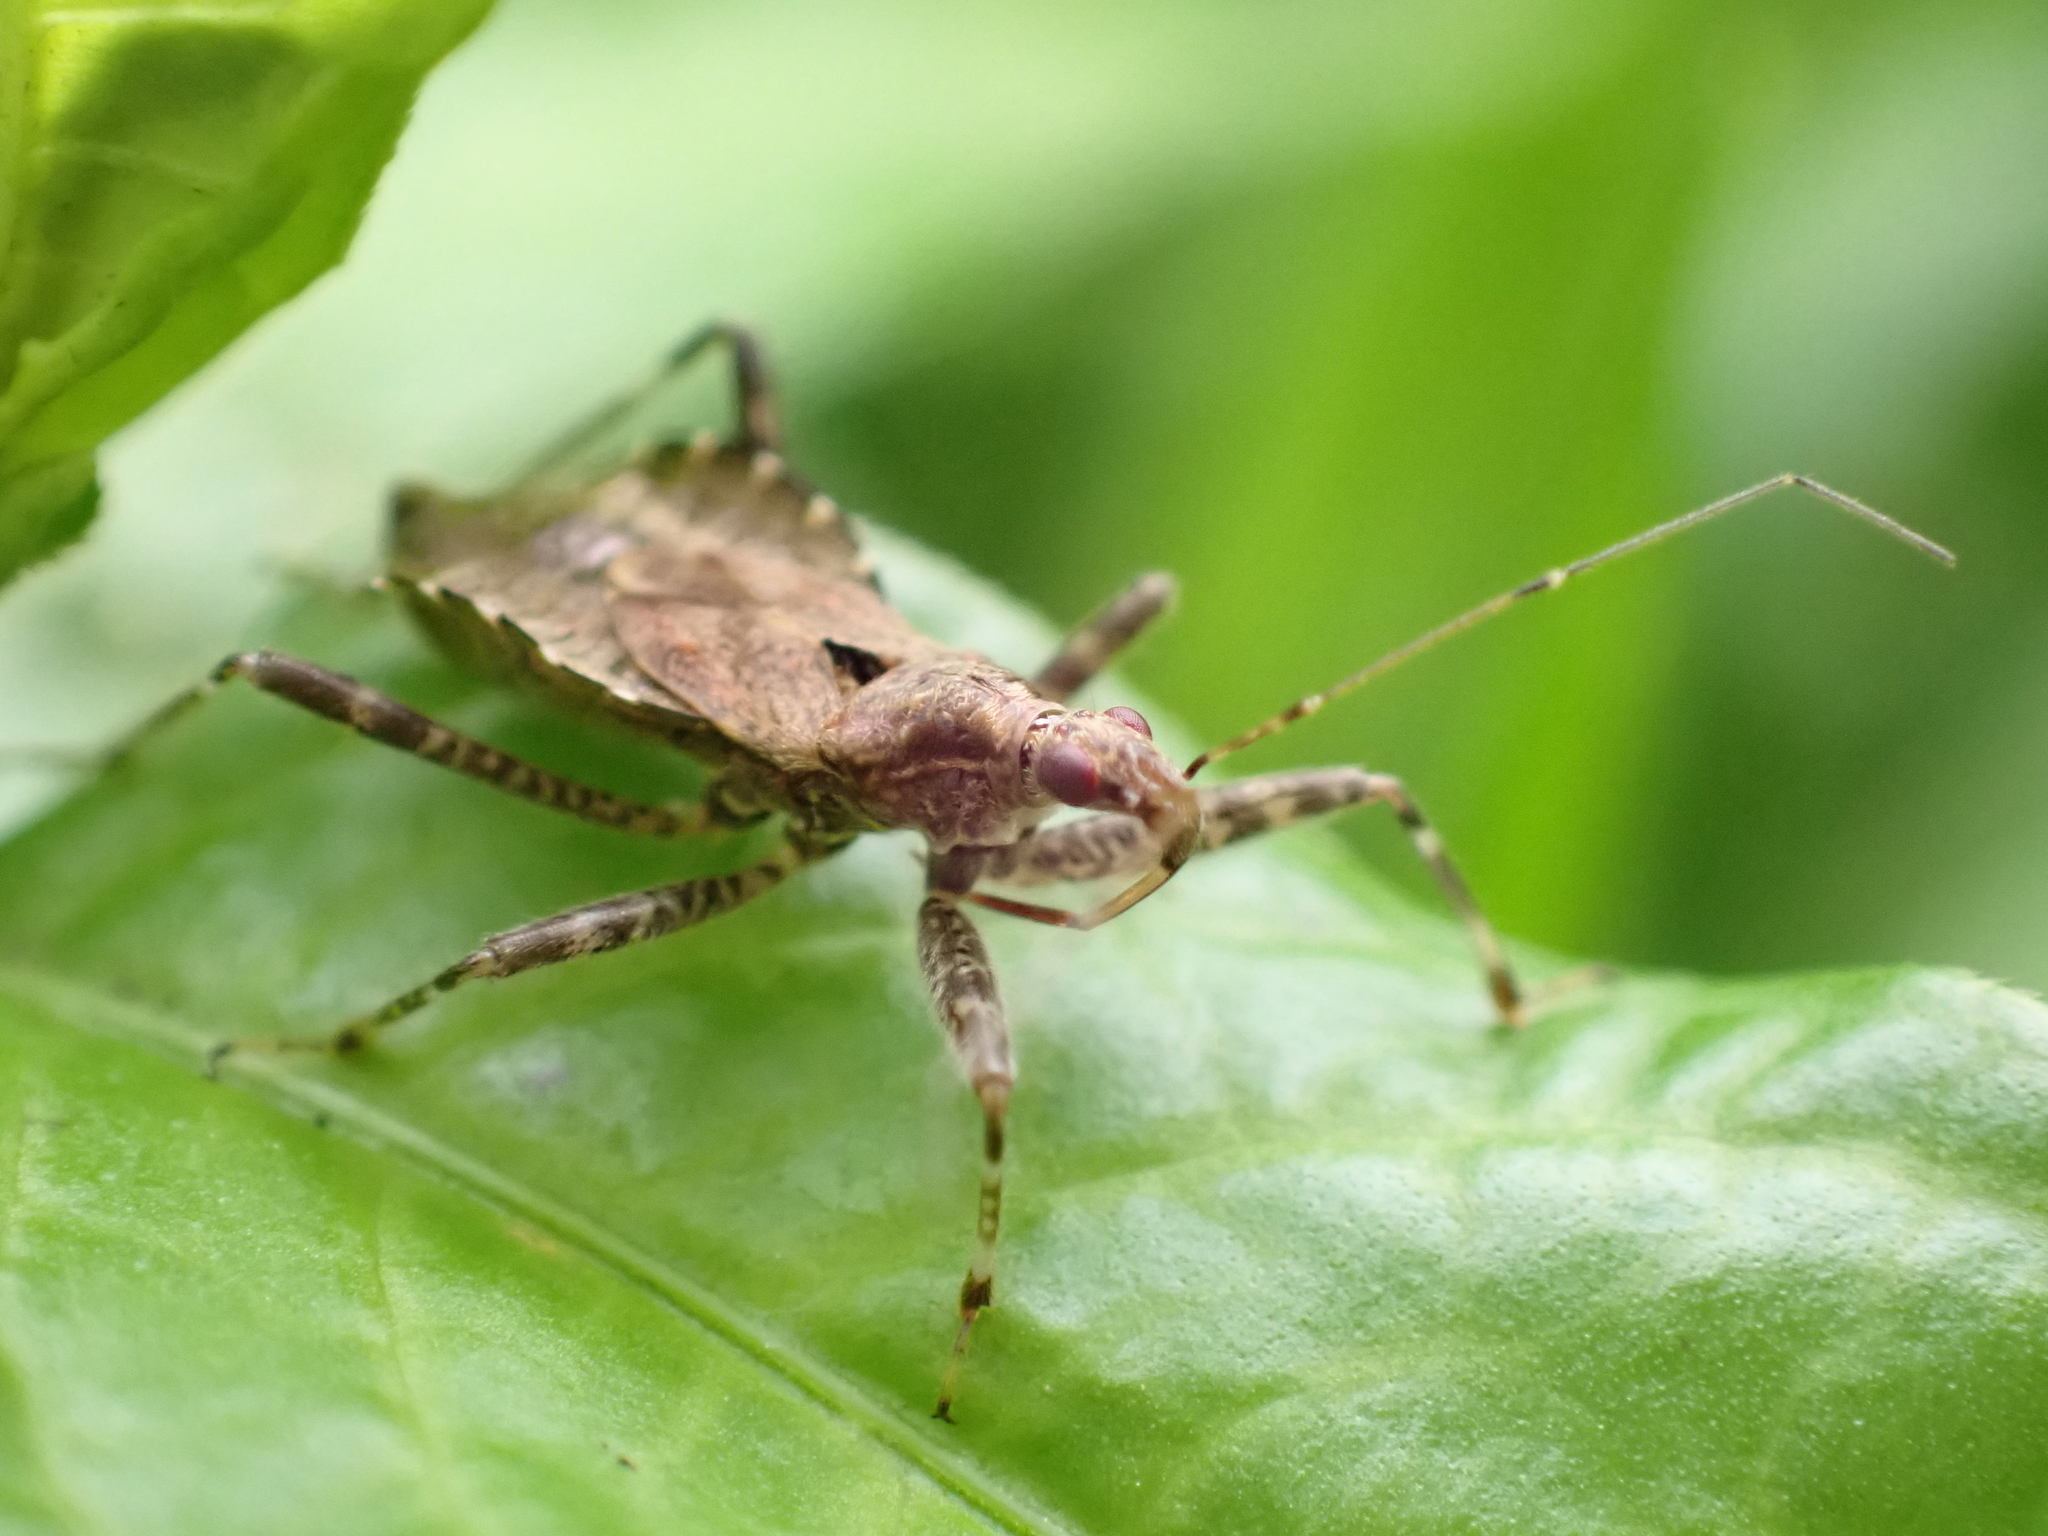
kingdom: Animalia
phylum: Arthropoda
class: Insecta
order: Hemiptera
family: Nabidae
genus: Himacerus
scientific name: Himacerus apterus
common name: Tree damsel bug
